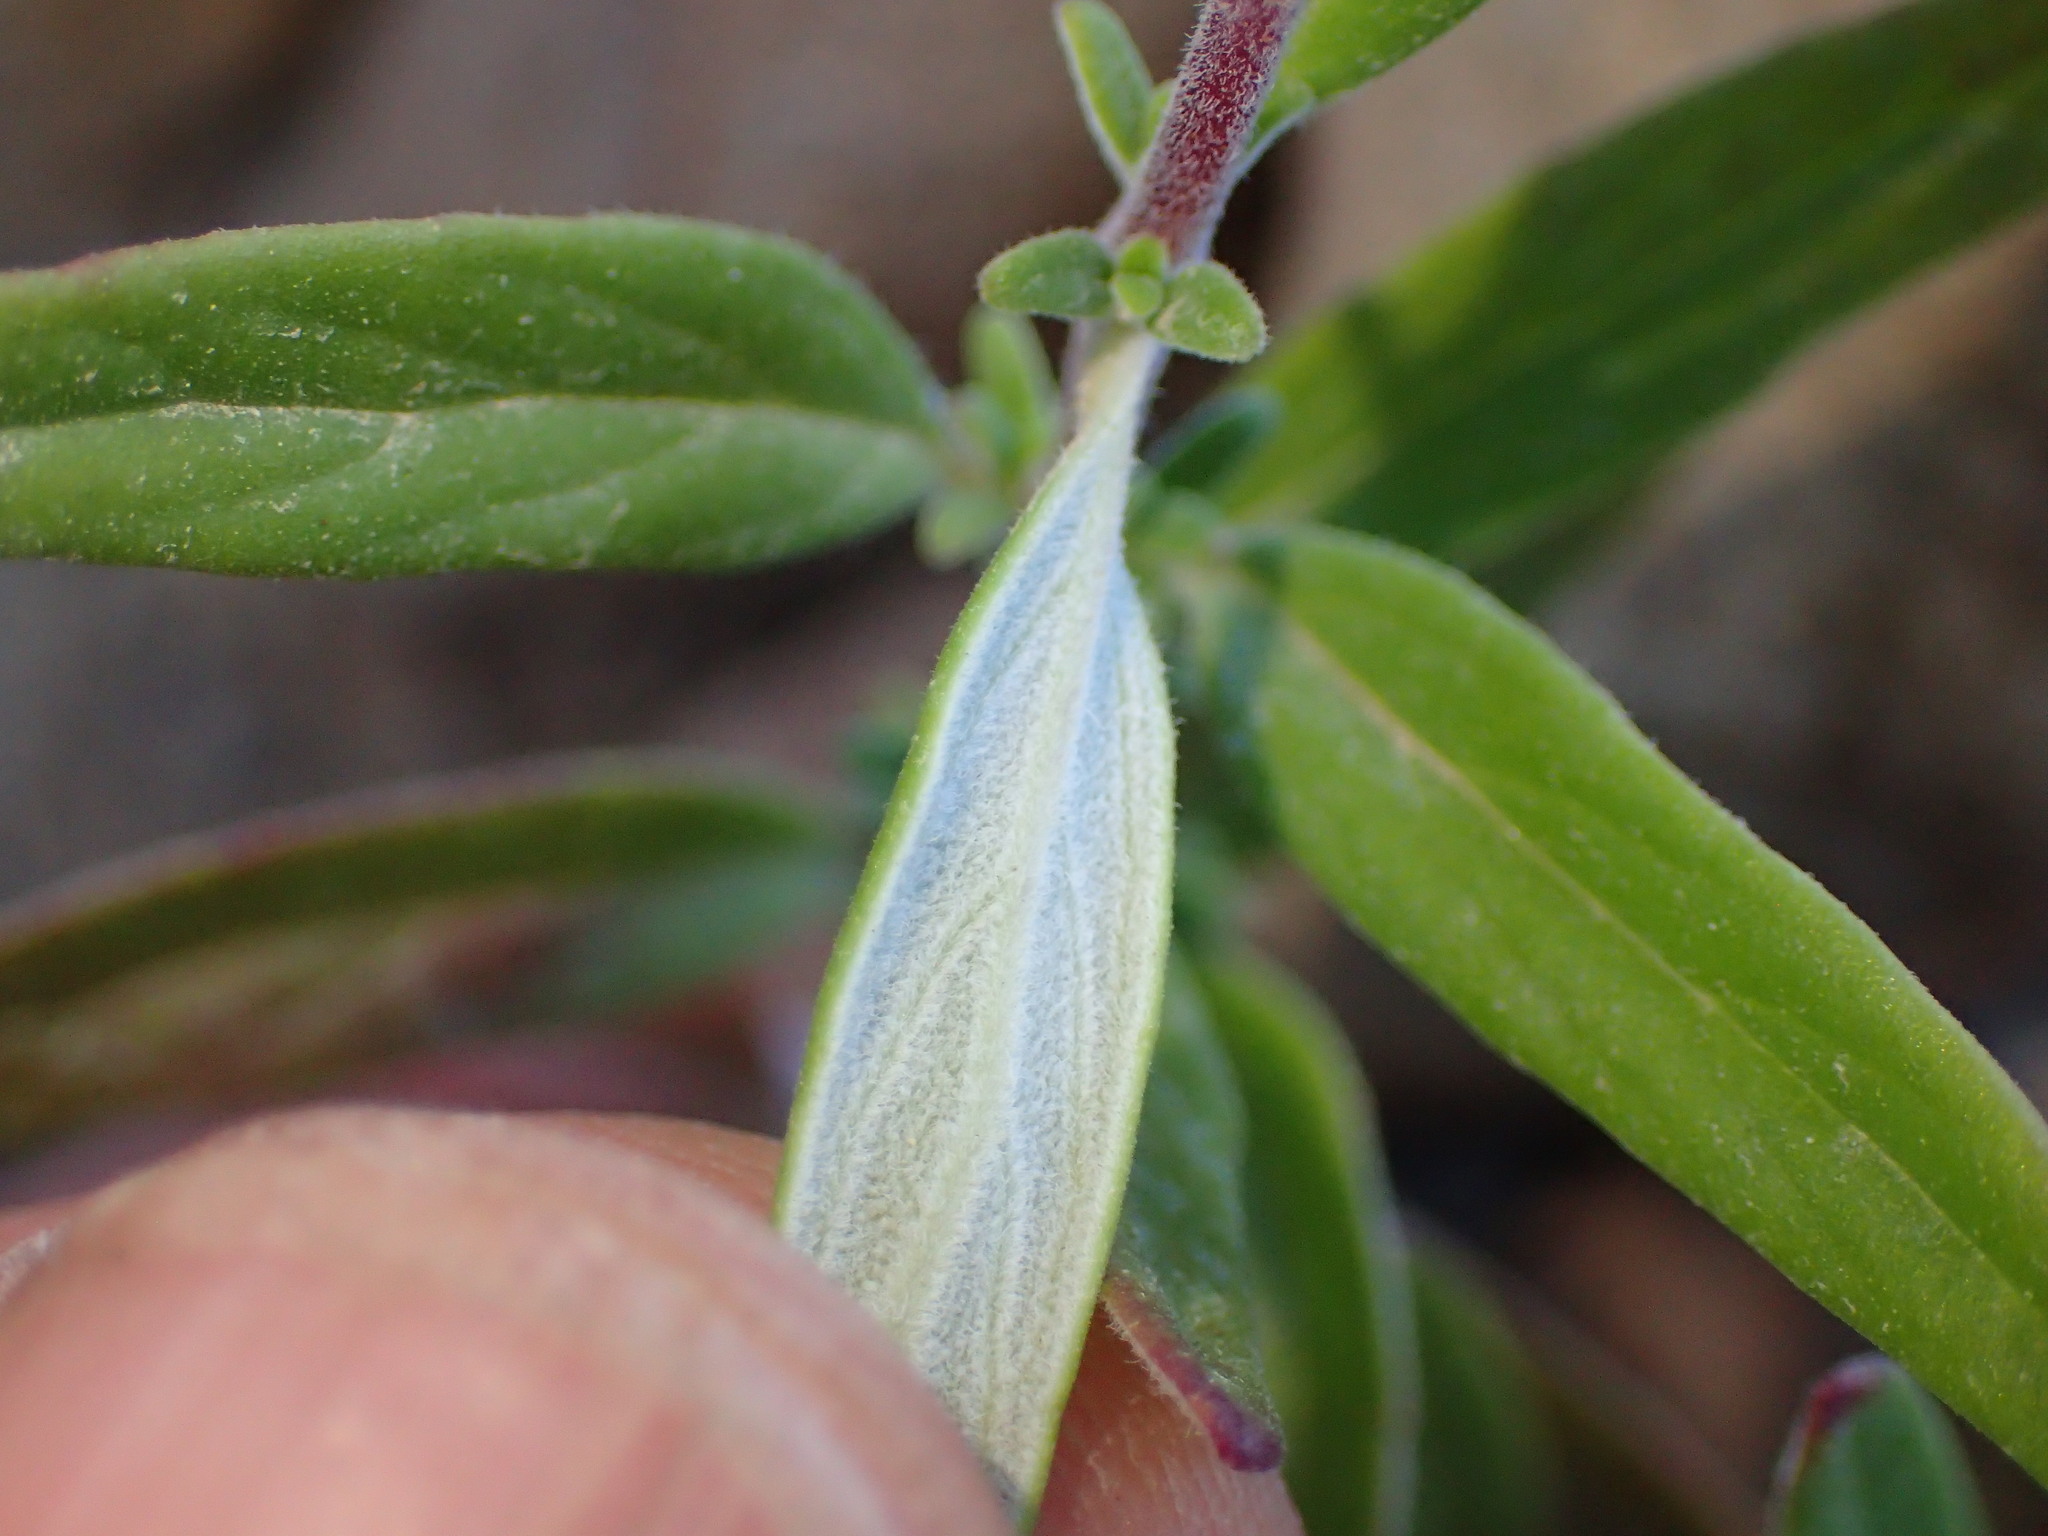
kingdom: Plantae
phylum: Tracheophyta
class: Magnoliopsida
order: Lamiales
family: Lamiaceae
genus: Monardella
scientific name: Monardella hypoleuca
